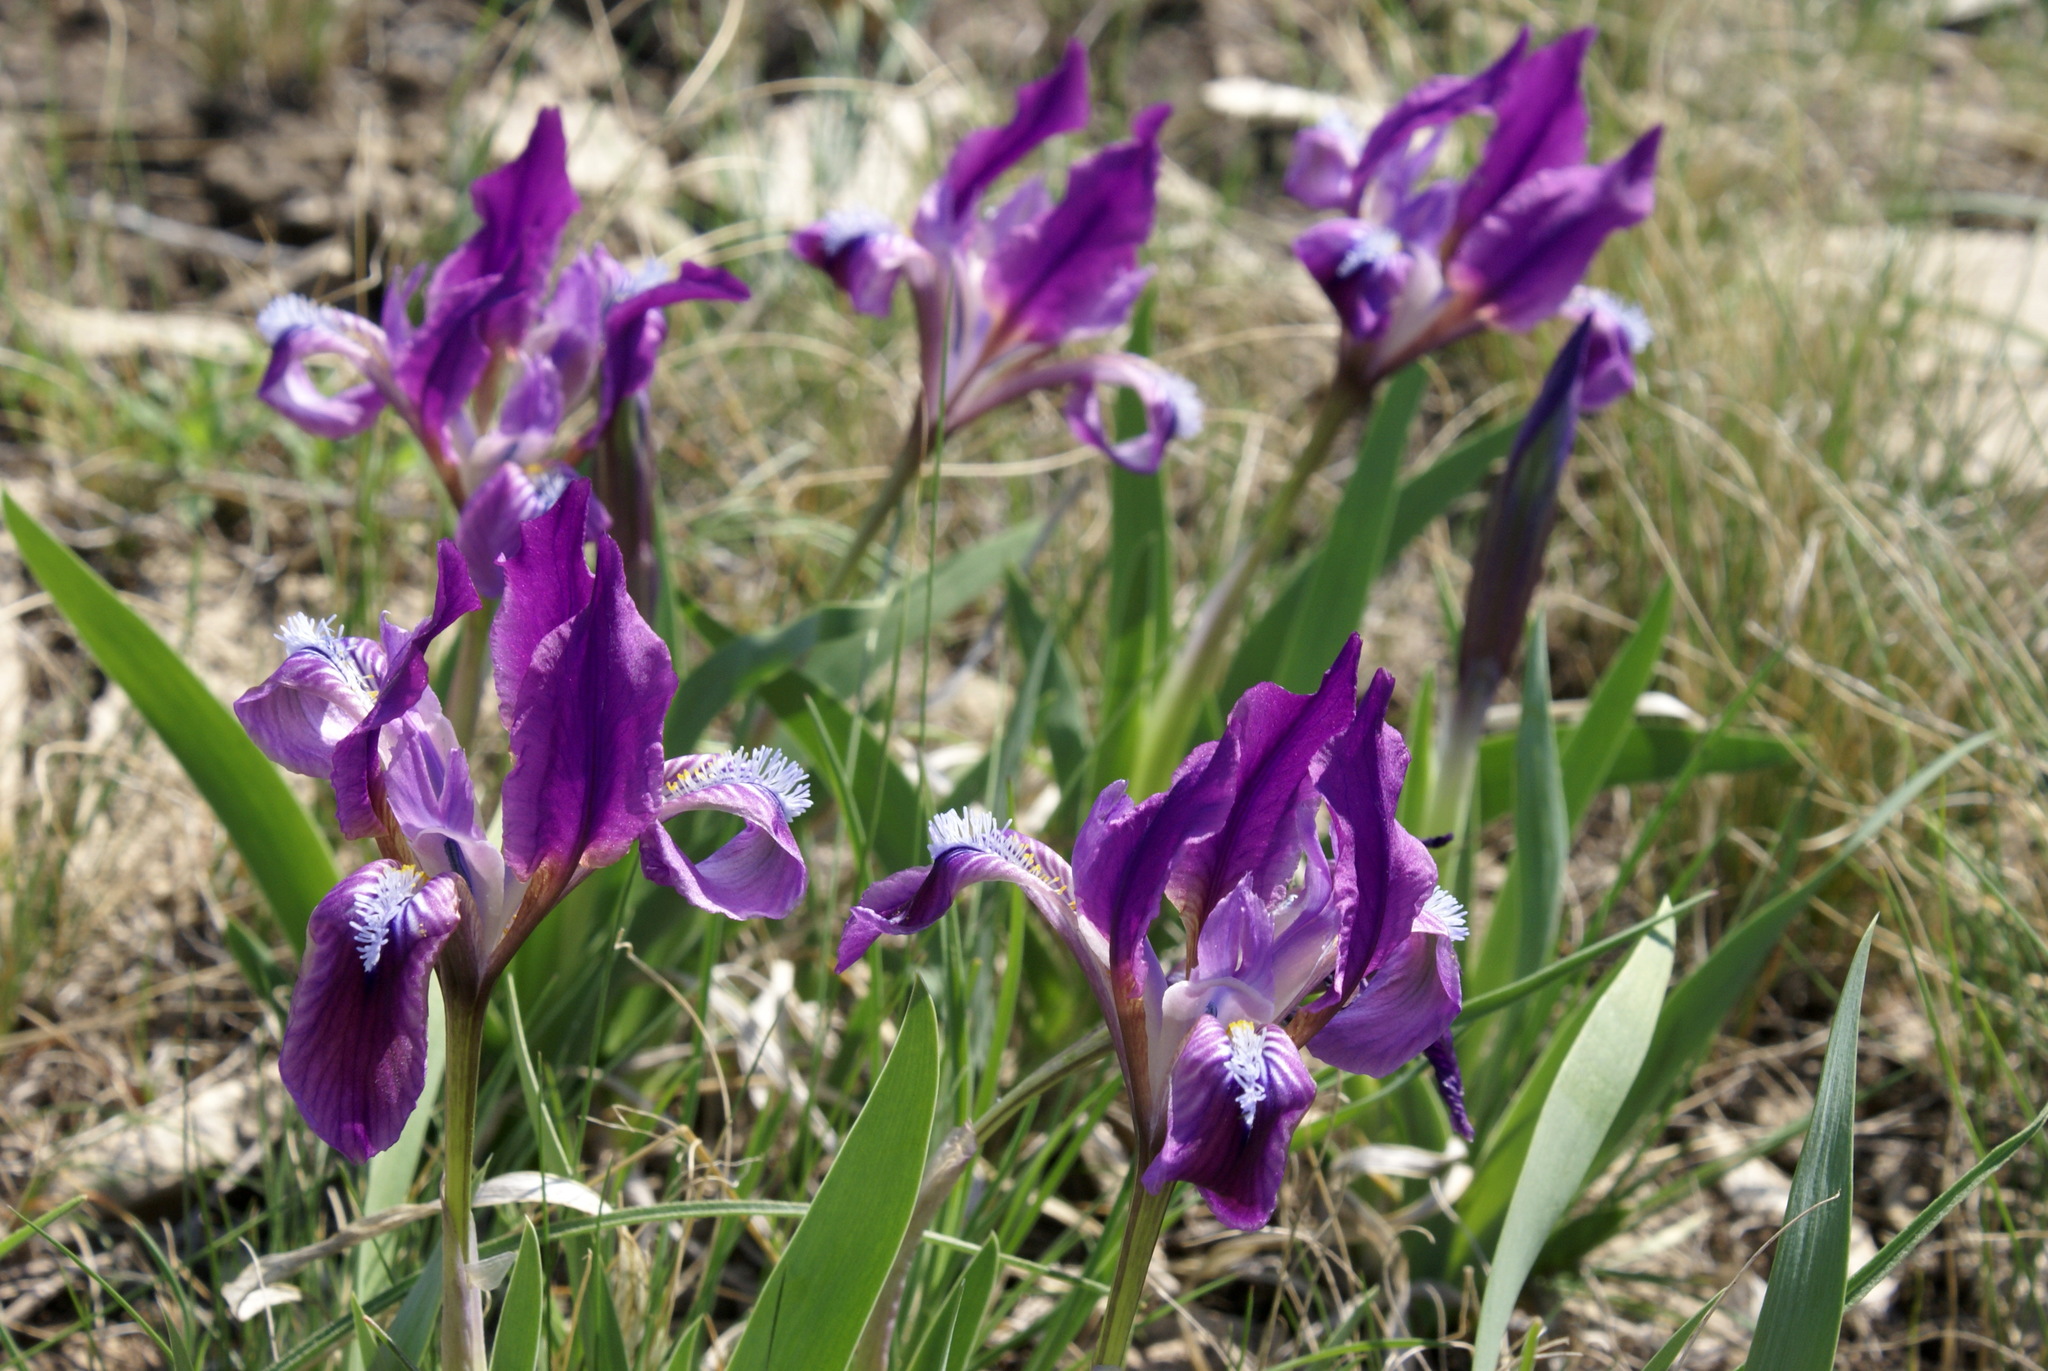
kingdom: Plantae
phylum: Tracheophyta
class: Liliopsida
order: Asparagales
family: Iridaceae
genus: Iris
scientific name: Iris pumila
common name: Dwarf iris
